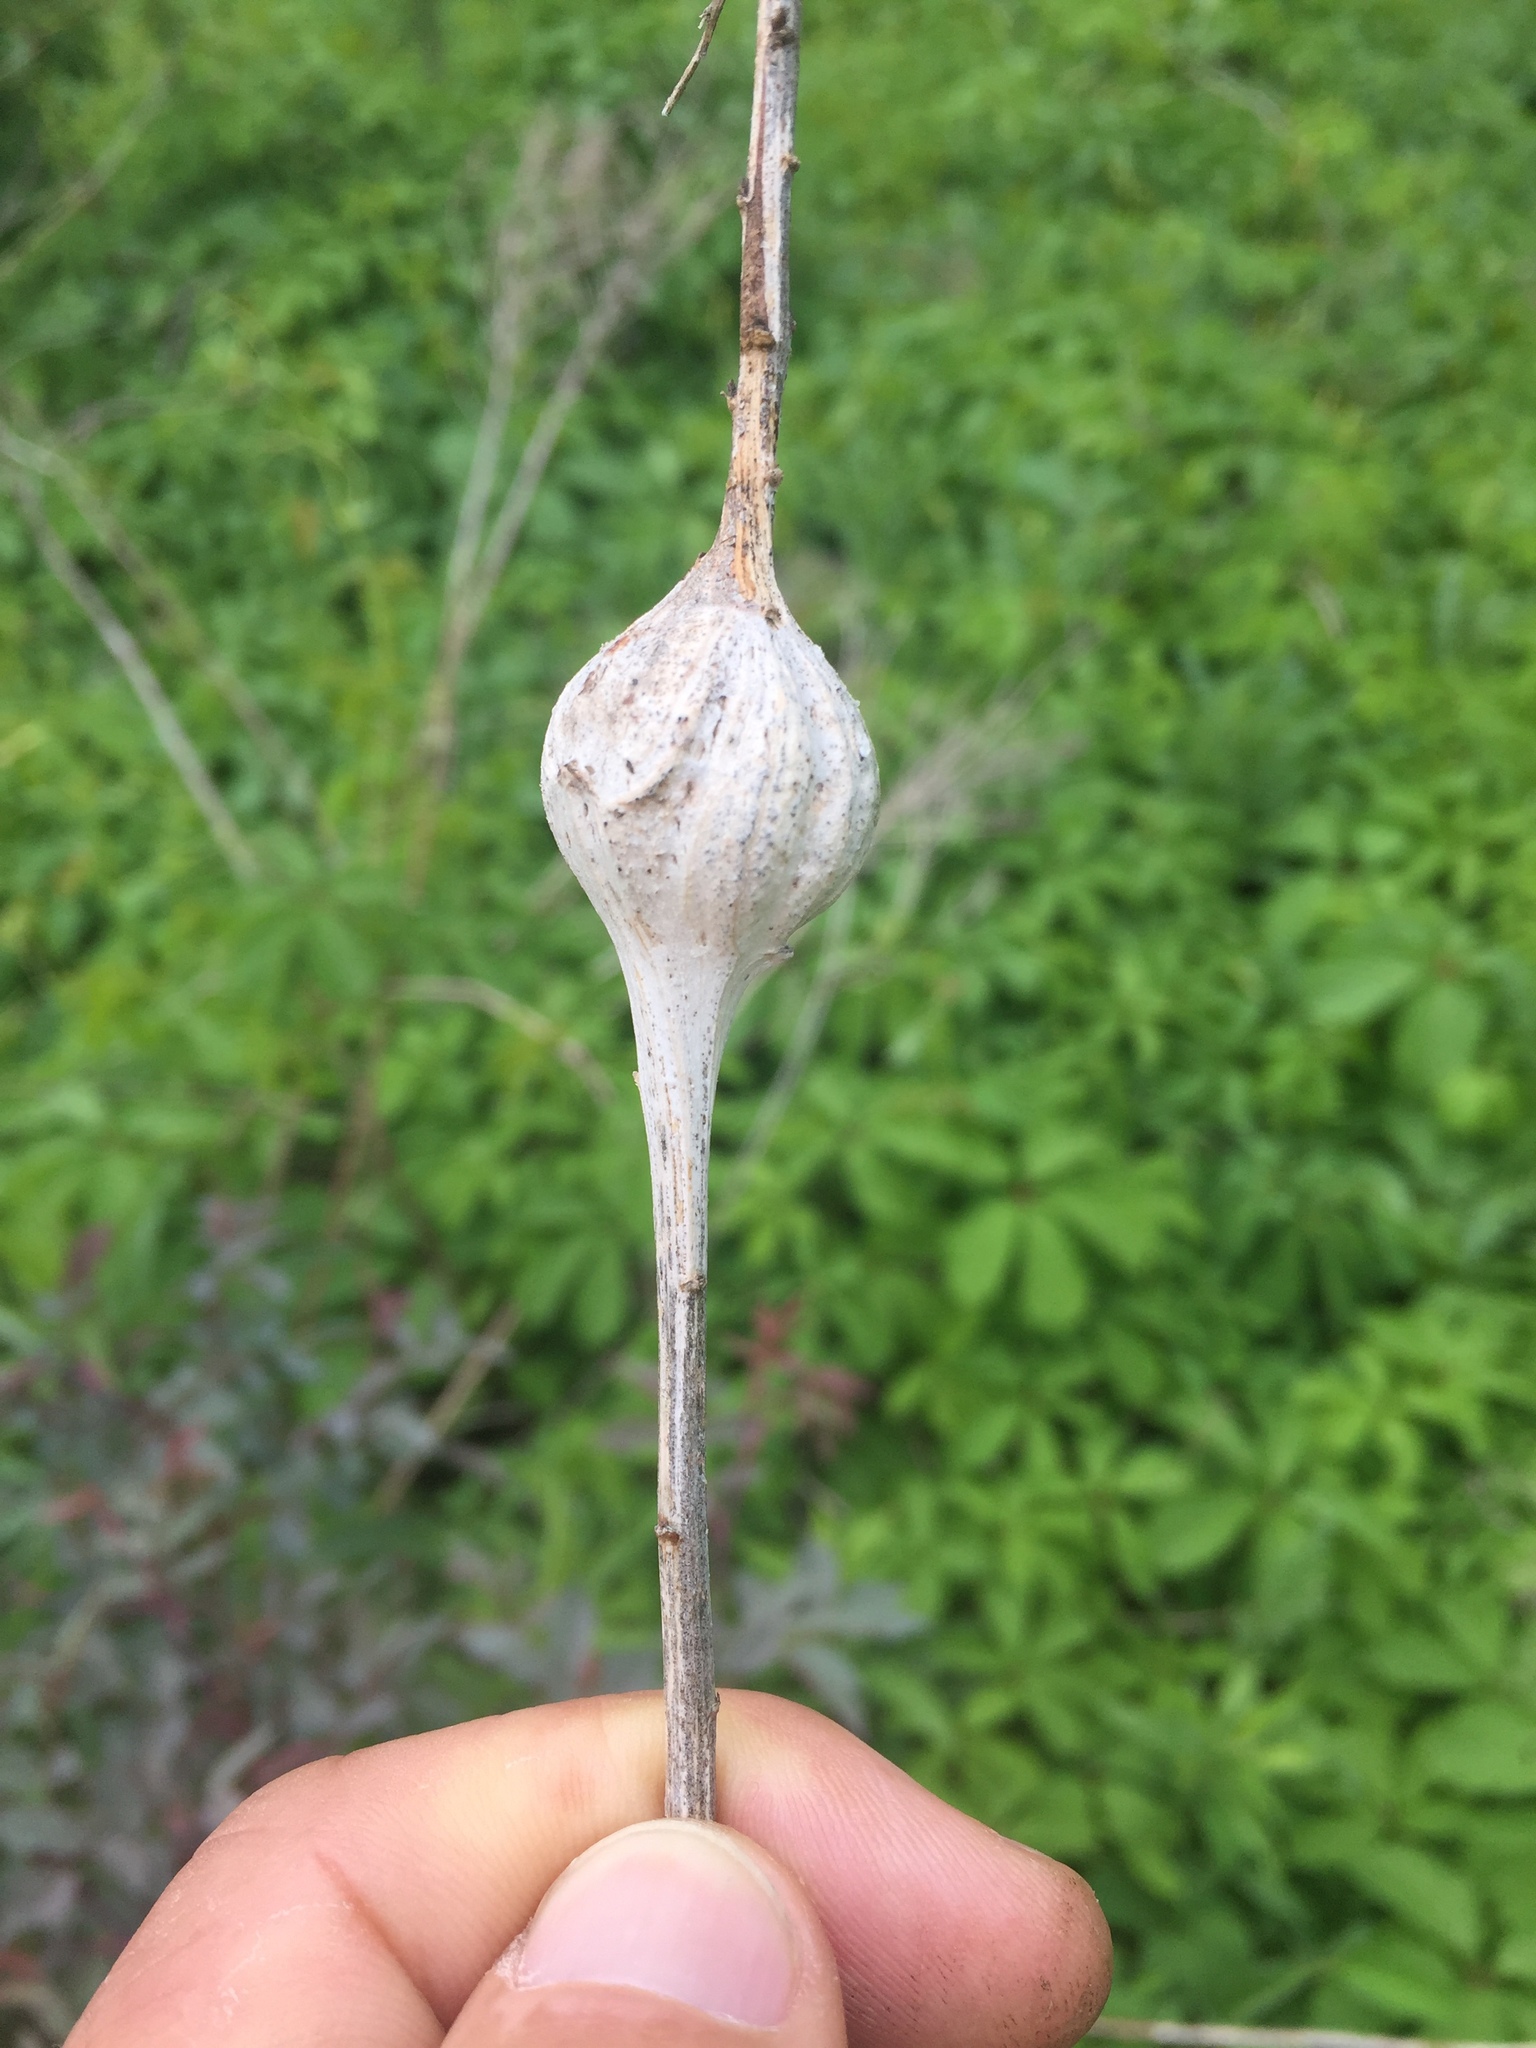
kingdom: Animalia
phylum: Arthropoda
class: Insecta
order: Diptera
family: Tephritidae
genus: Eurosta
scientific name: Eurosta solidaginis
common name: Goldenrod gall fly
